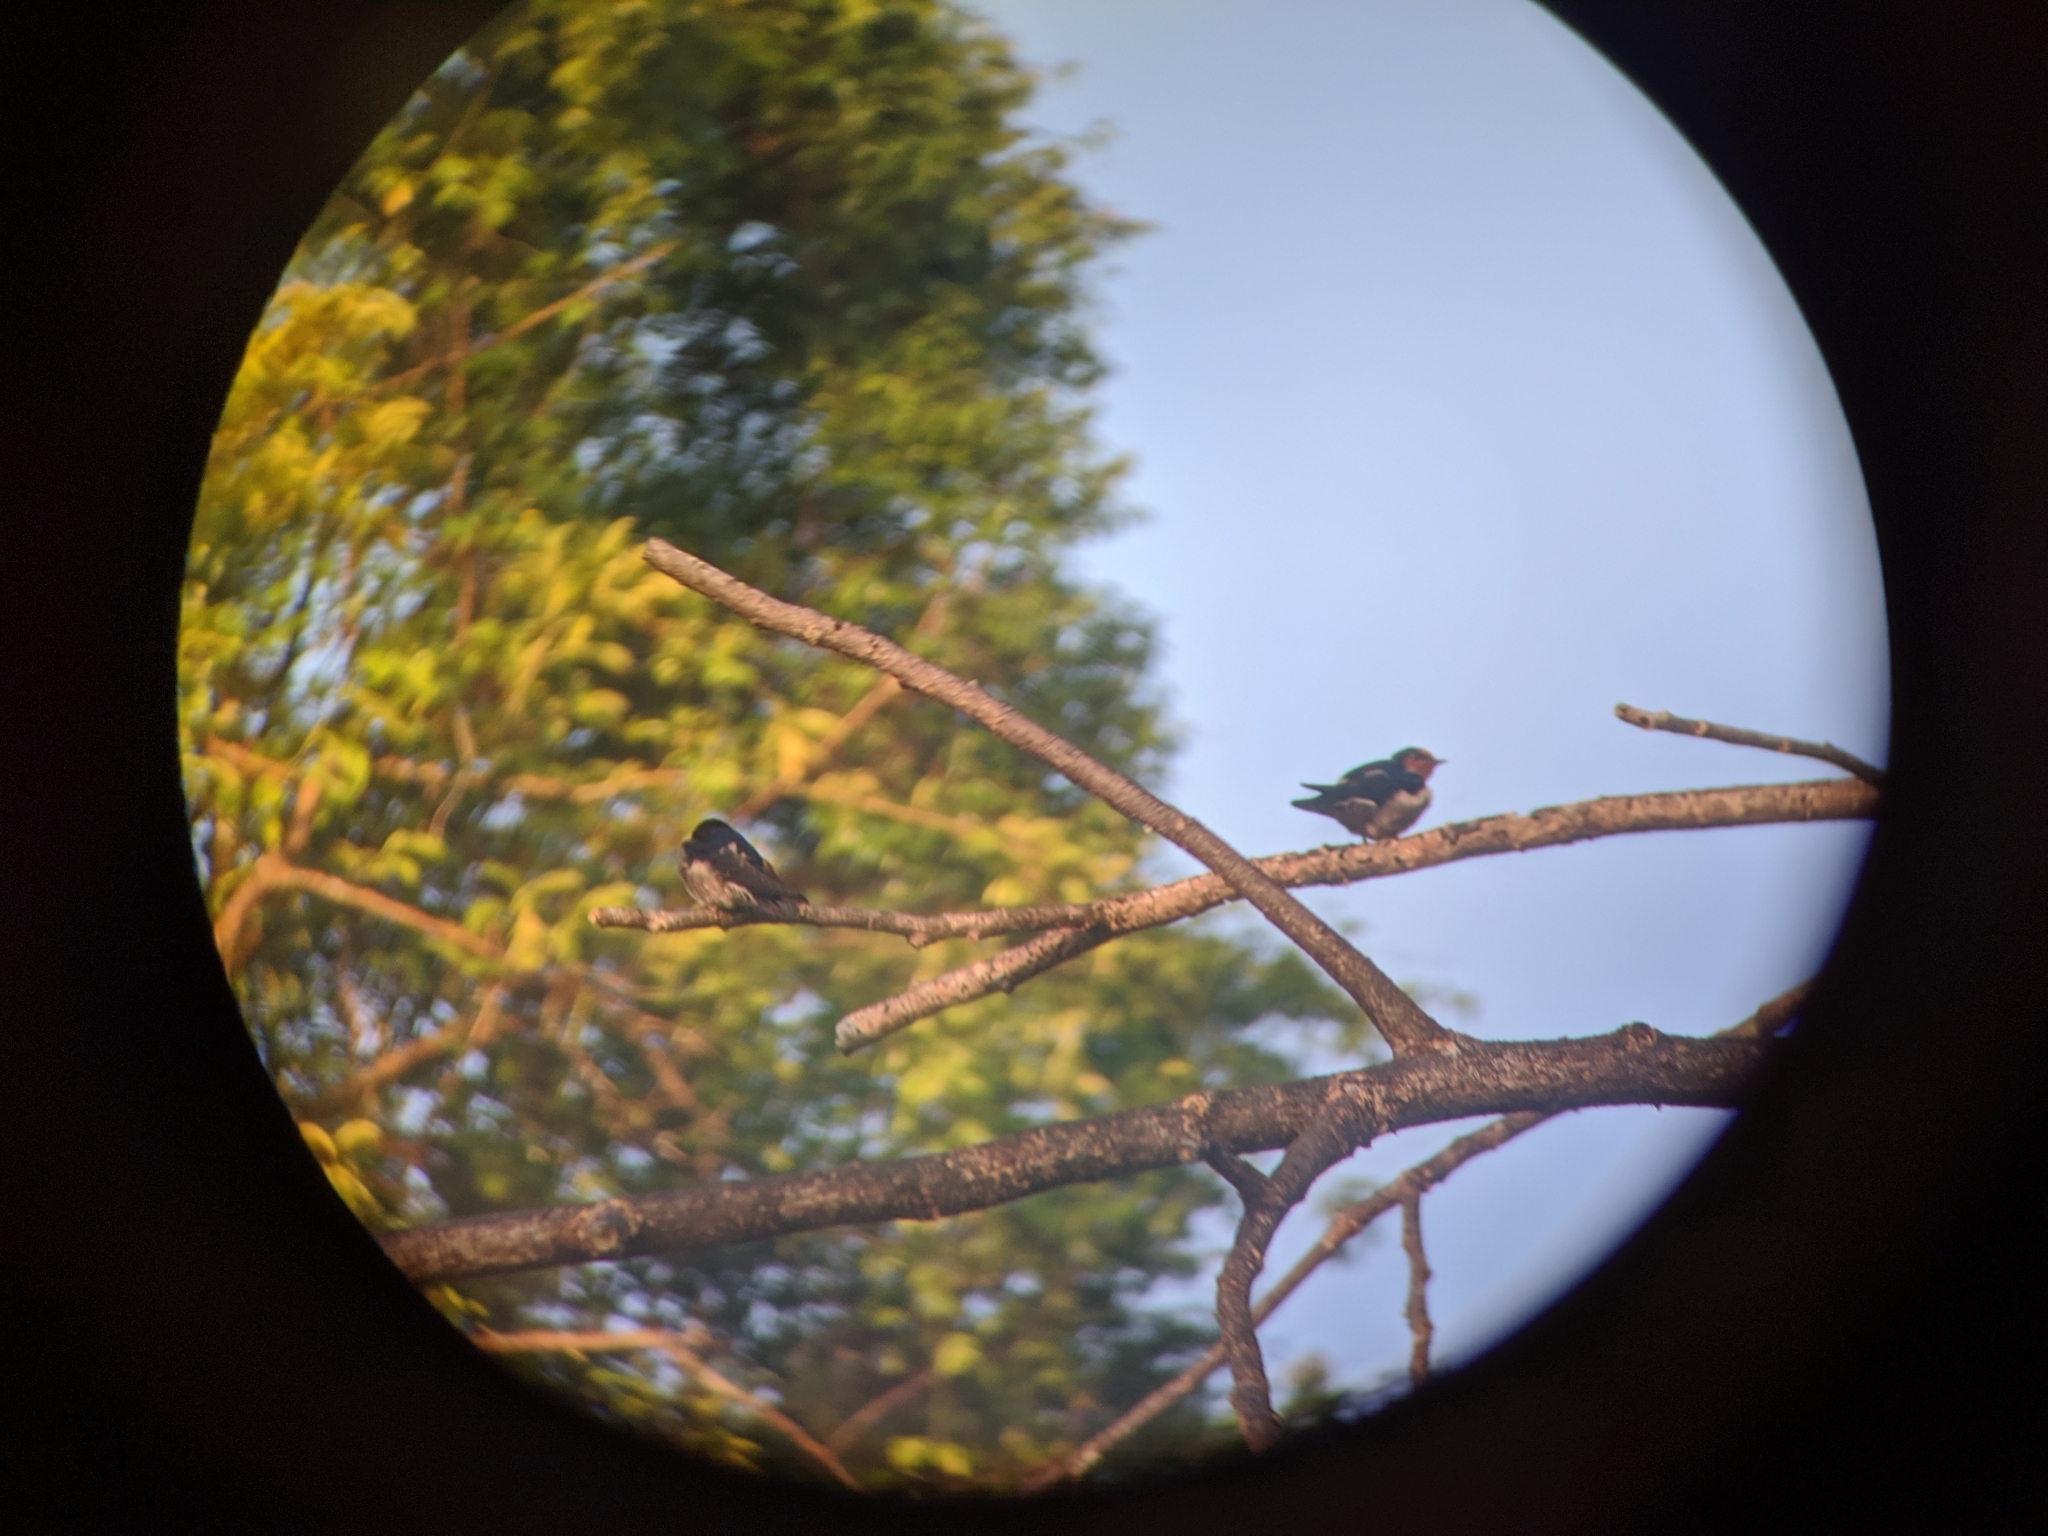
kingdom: Animalia
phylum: Chordata
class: Aves
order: Passeriformes
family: Hirundinidae
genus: Hirundo
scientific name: Hirundo tahitica
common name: Pacific swallow
